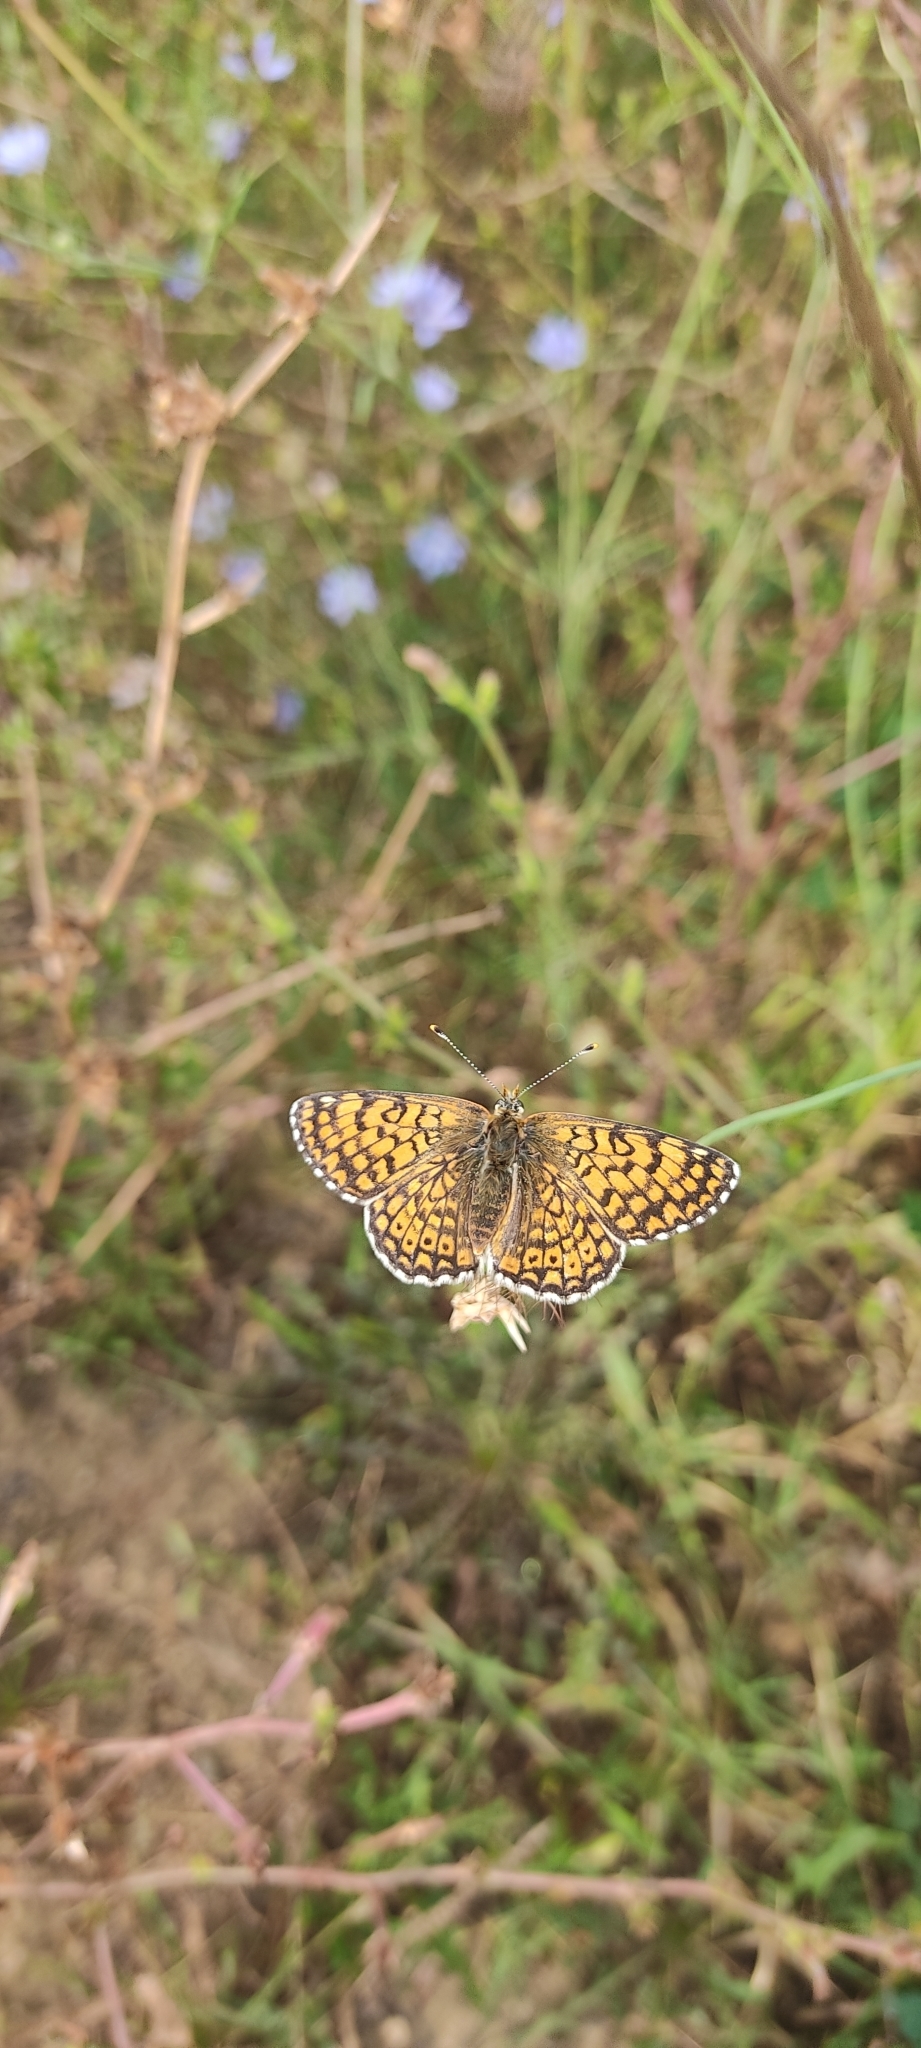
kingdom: Animalia
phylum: Arthropoda
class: Insecta
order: Lepidoptera
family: Nymphalidae
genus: Melitaea
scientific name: Melitaea cinxia
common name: Glanville fritillary
